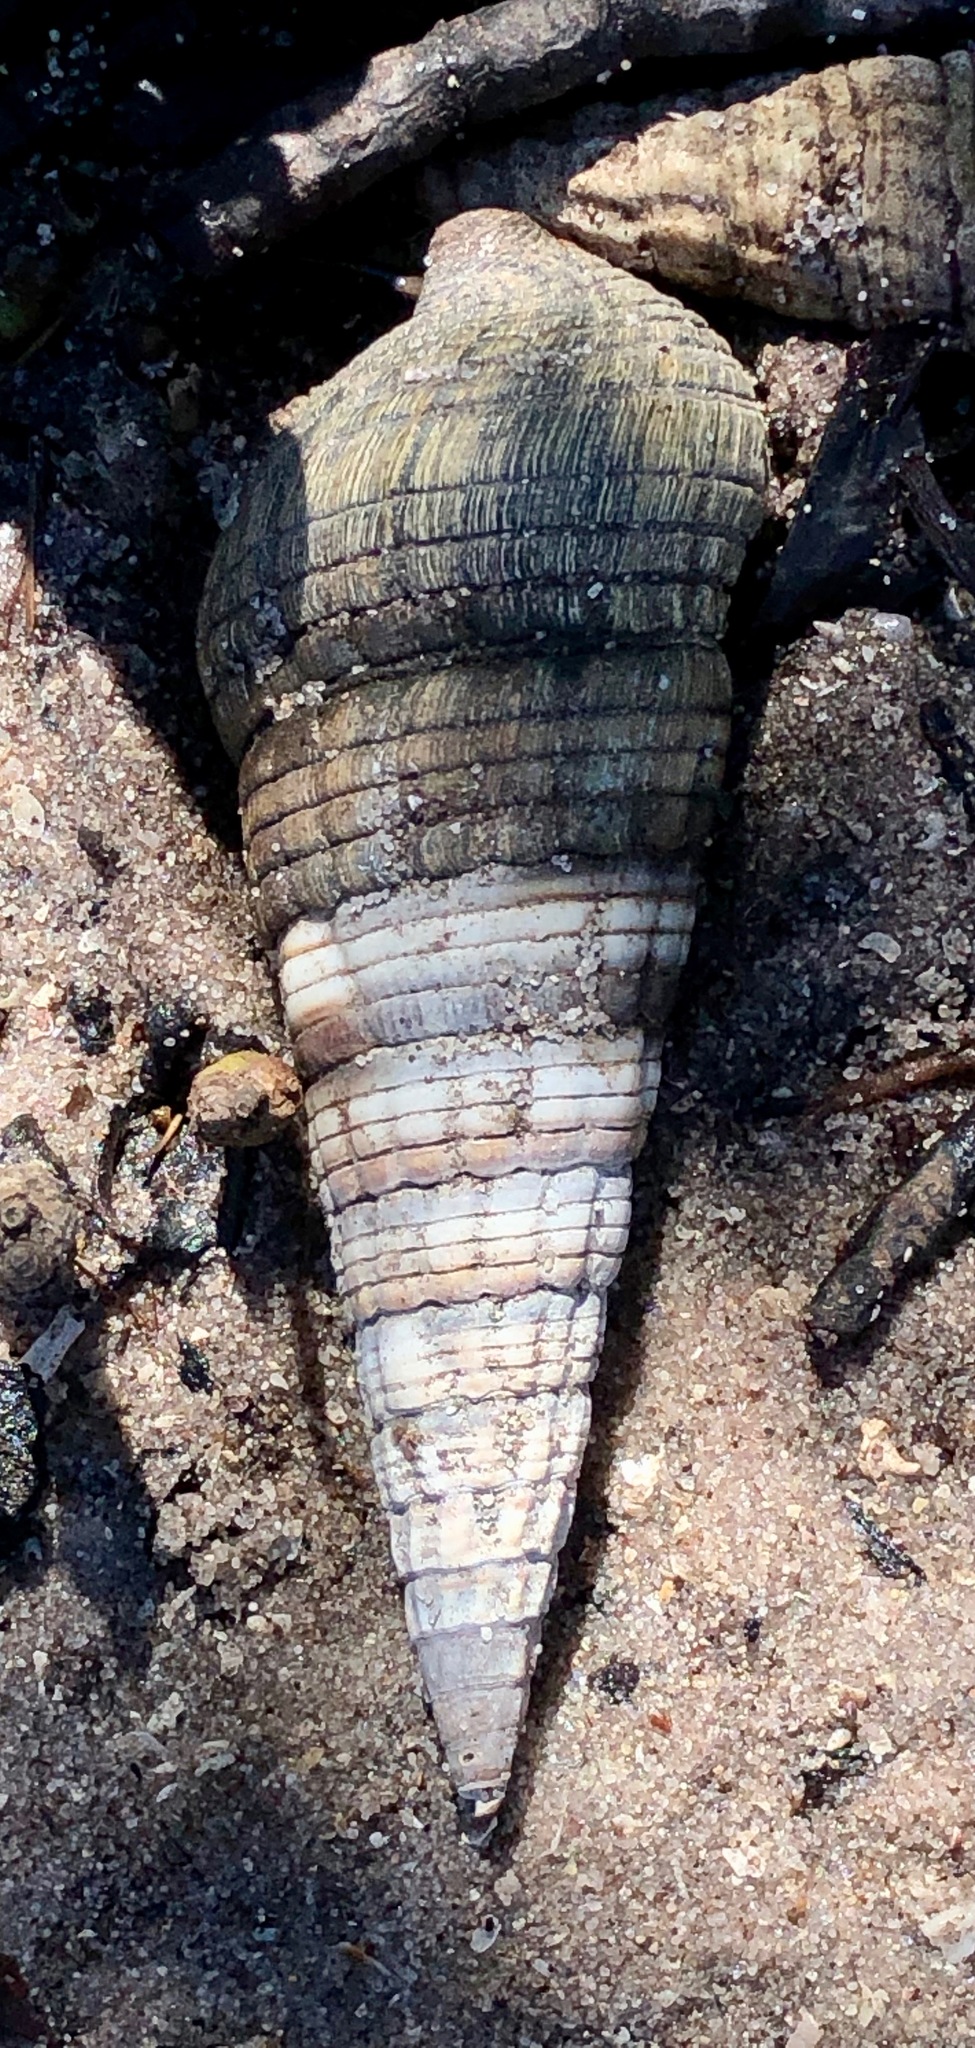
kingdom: Animalia
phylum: Mollusca
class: Gastropoda
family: Potamididae
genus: Terebralia
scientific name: Terebralia palustris
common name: Mangrove whelk
